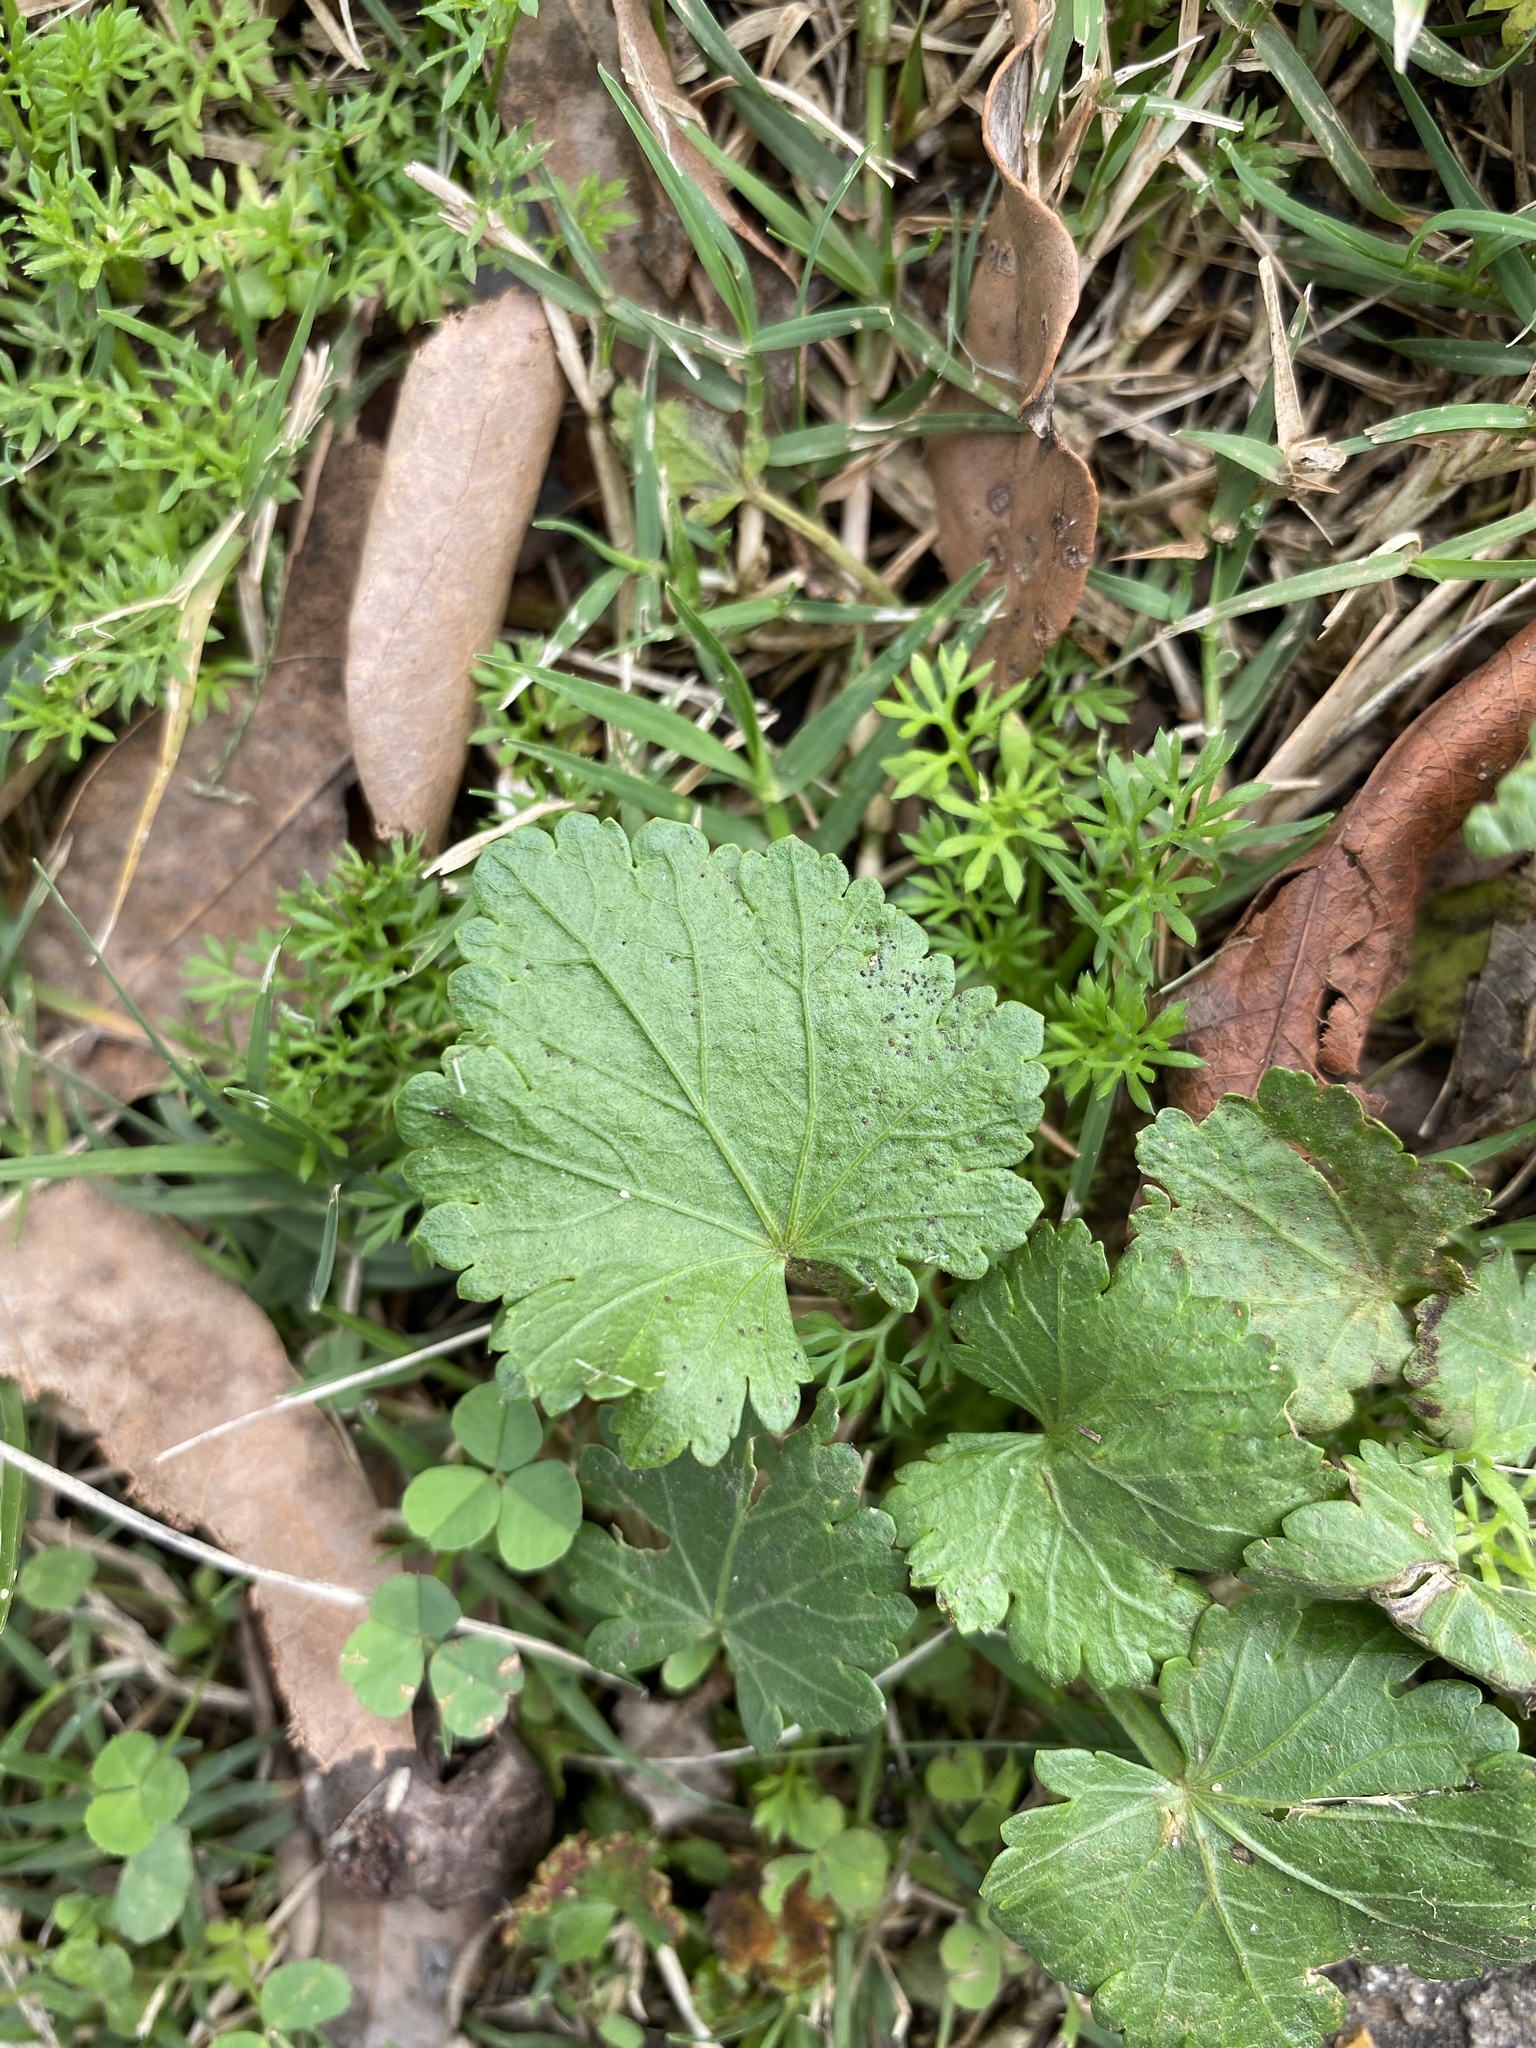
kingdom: Plantae
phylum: Tracheophyta
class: Magnoliopsida
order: Malvales
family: Malvaceae
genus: Modiola
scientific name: Modiola caroliniana
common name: Carolina bristlemallow
